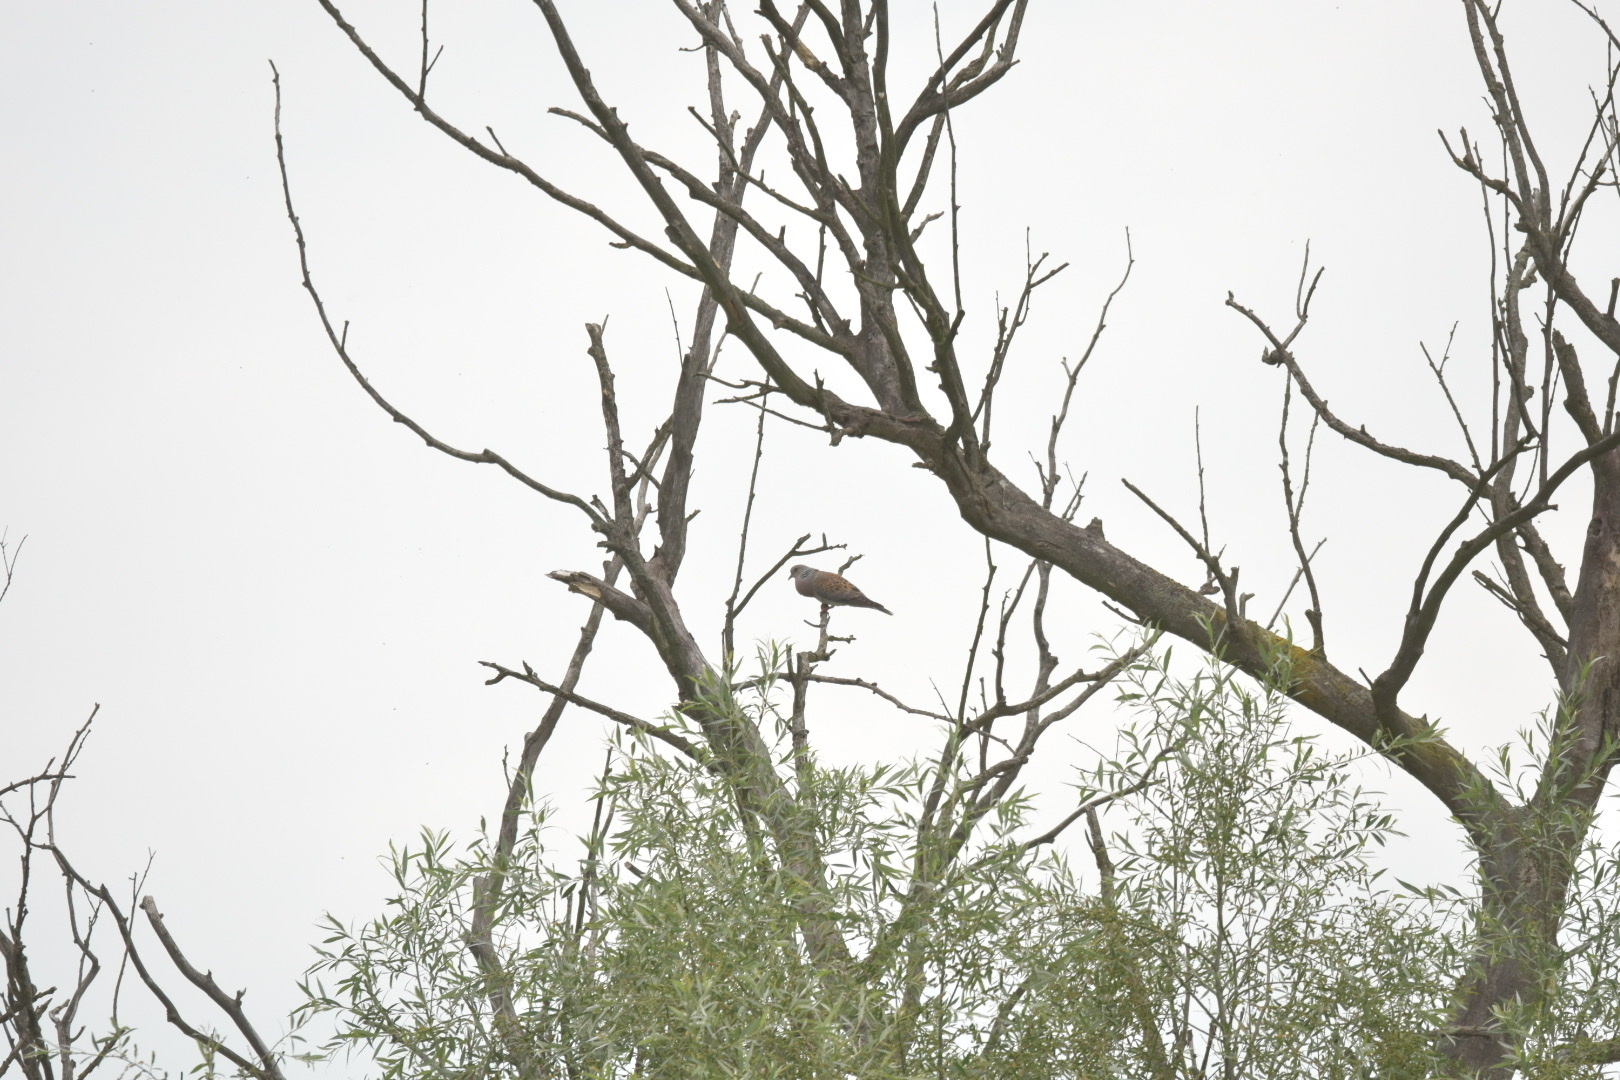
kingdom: Animalia
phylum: Chordata
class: Aves
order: Columbiformes
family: Columbidae
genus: Streptopelia
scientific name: Streptopelia turtur
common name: European turtle dove
